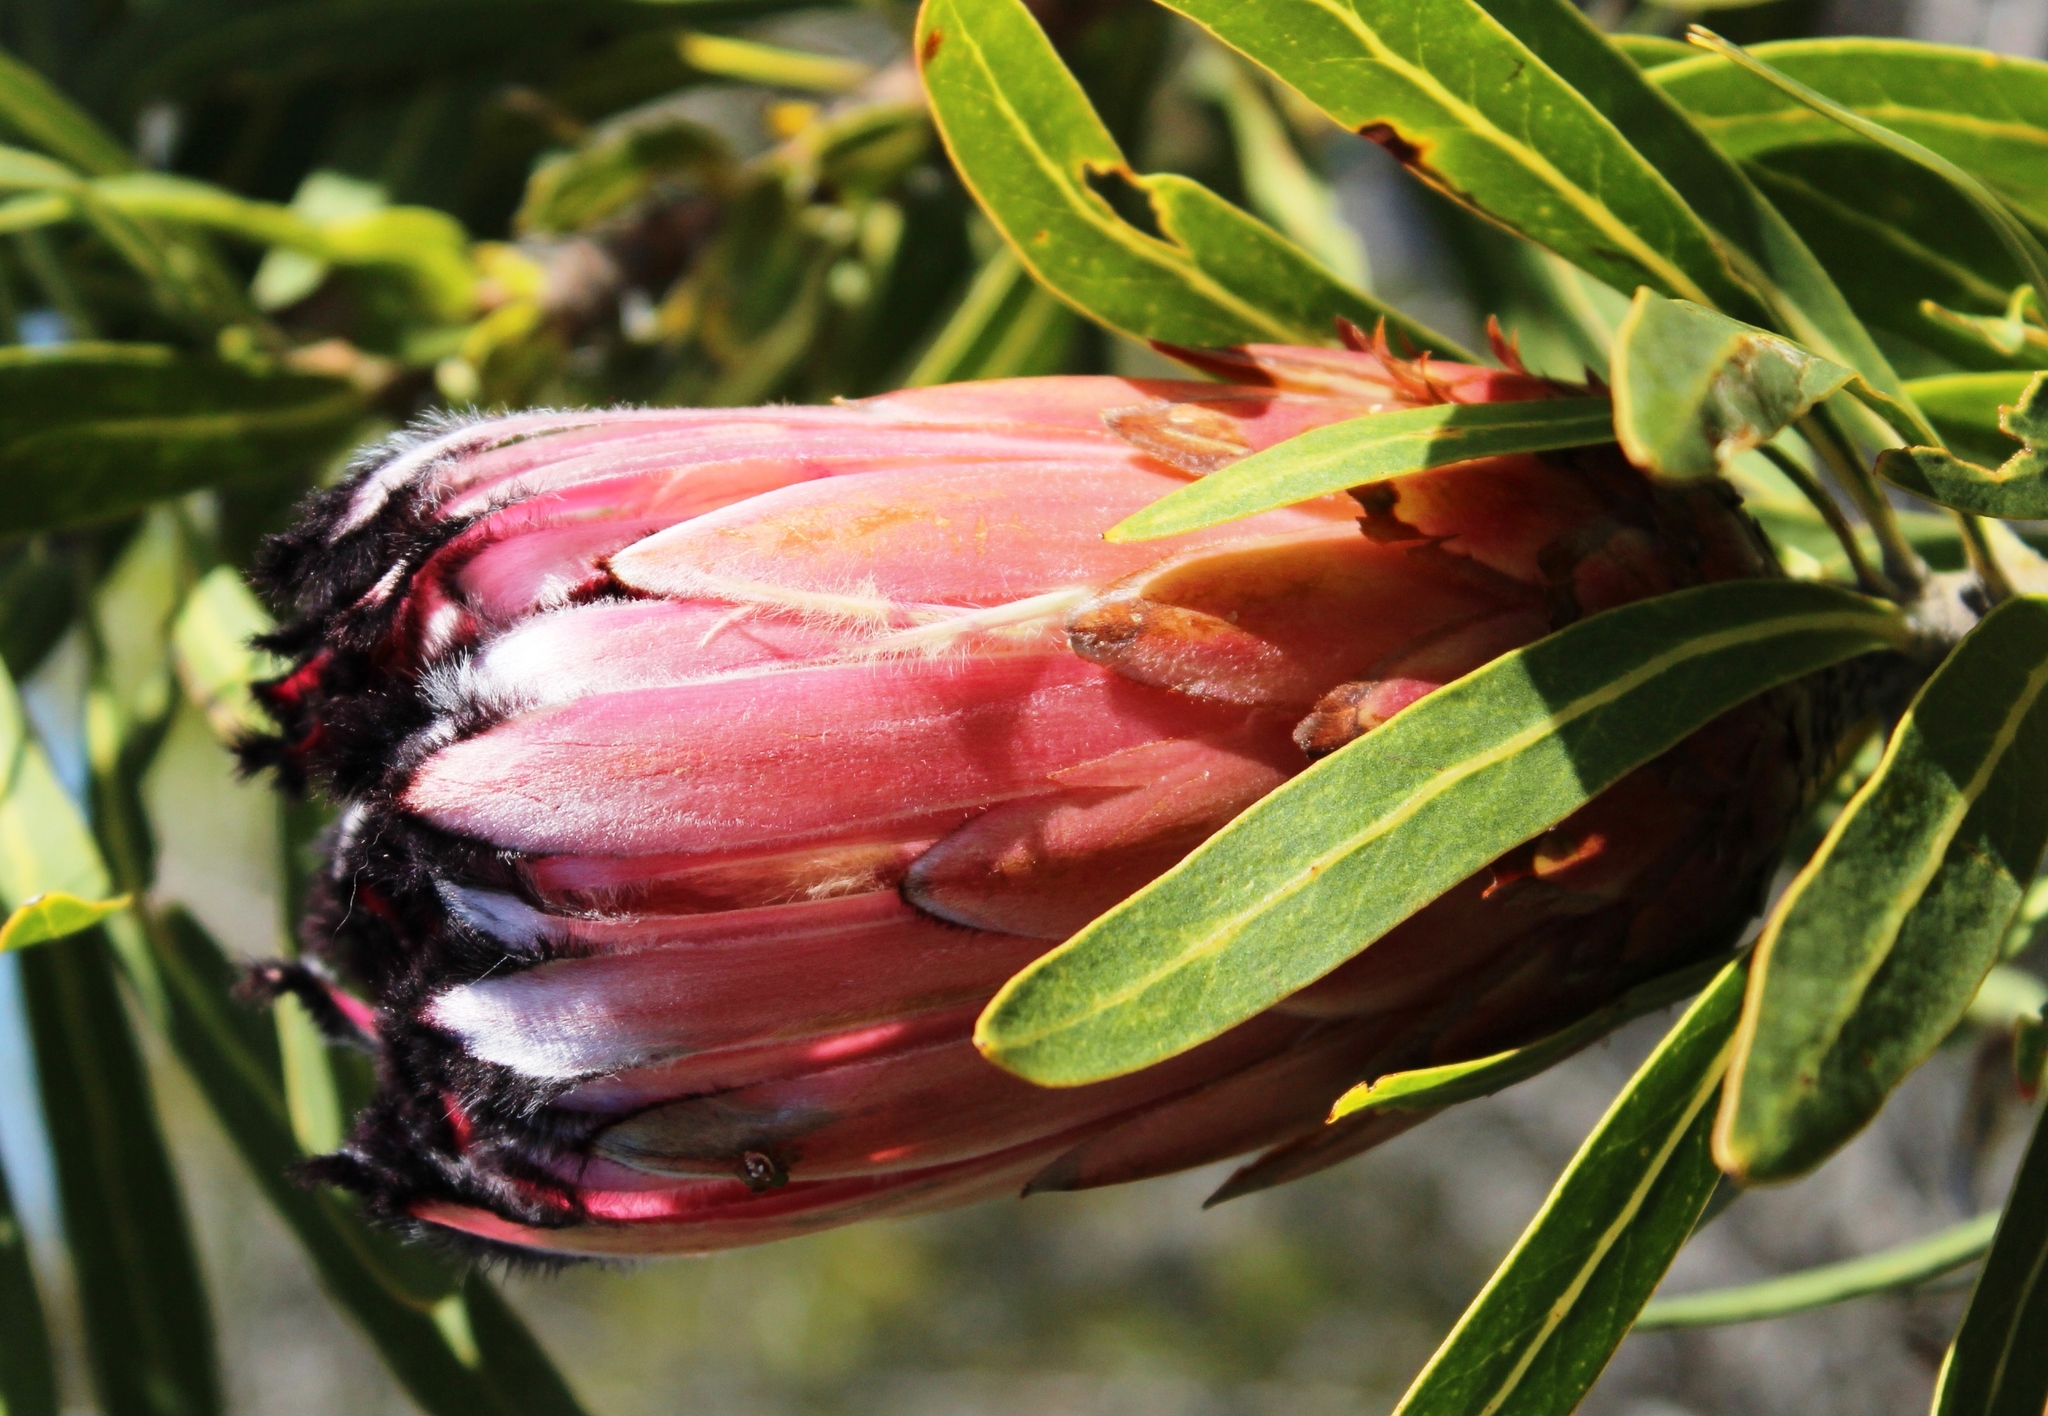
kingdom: Plantae
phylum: Tracheophyta
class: Magnoliopsida
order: Proteales
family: Proteaceae
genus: Protea
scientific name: Protea neriifolia
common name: Blue sugarbush
